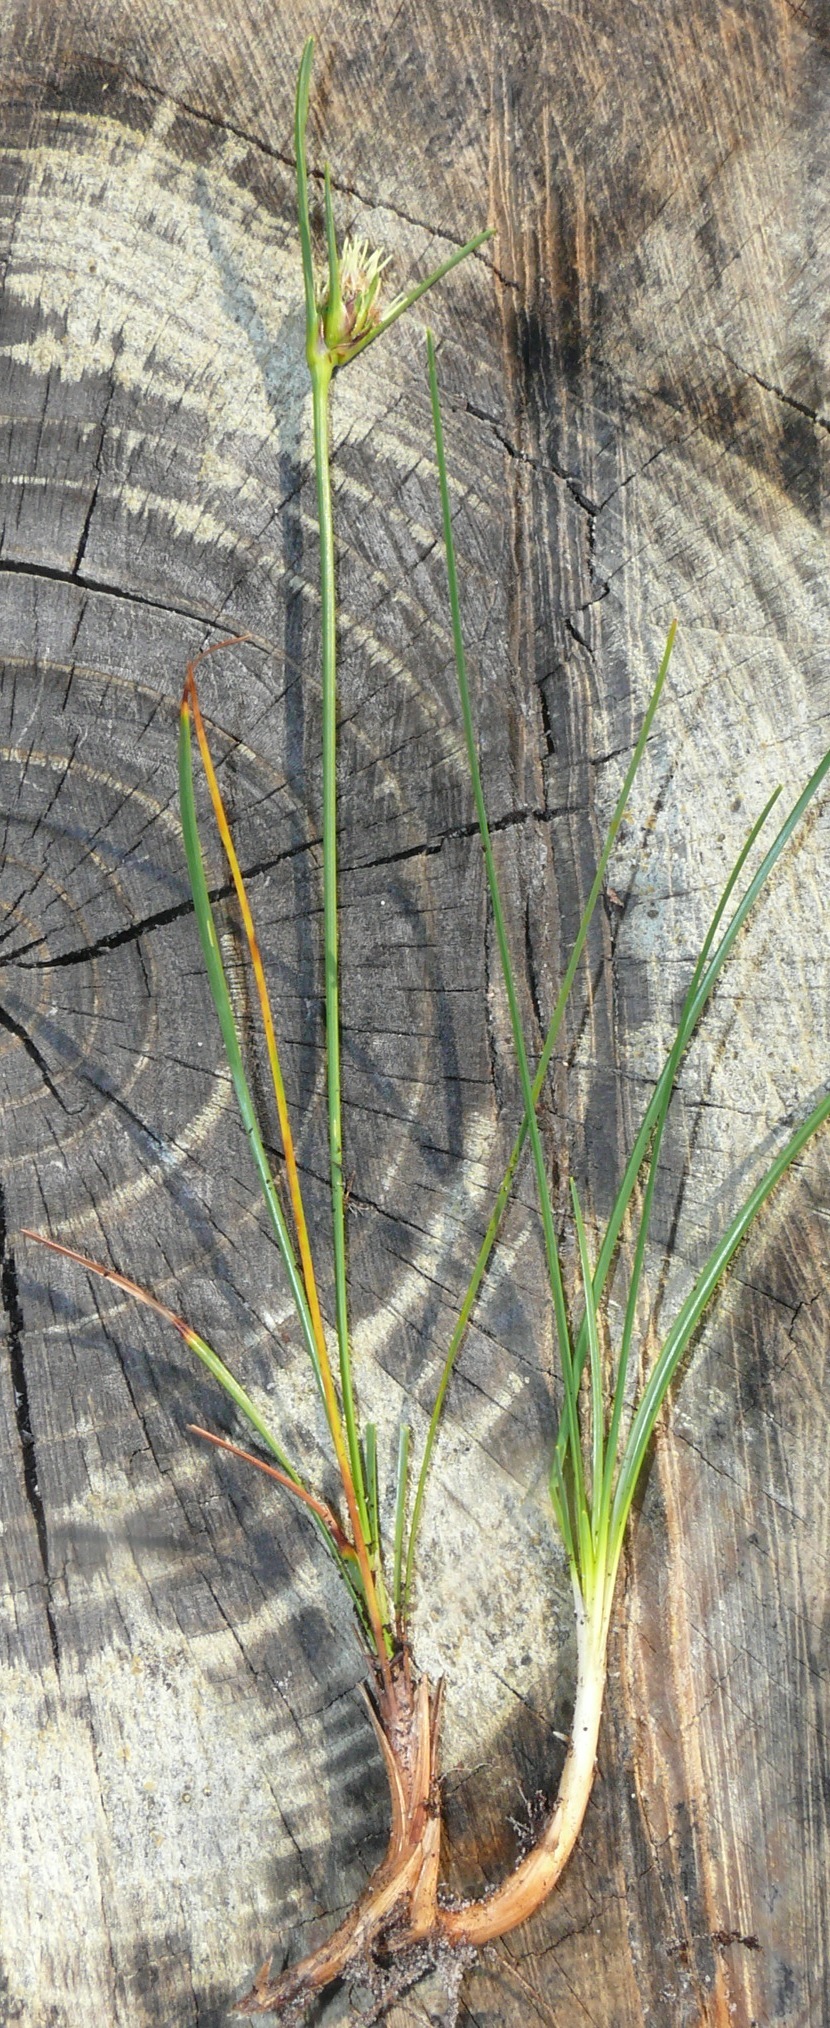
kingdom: Plantae
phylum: Tracheophyta
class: Liliopsida
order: Poales
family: Cyperaceae
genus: Ficinia
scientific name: Ficinia pallens
